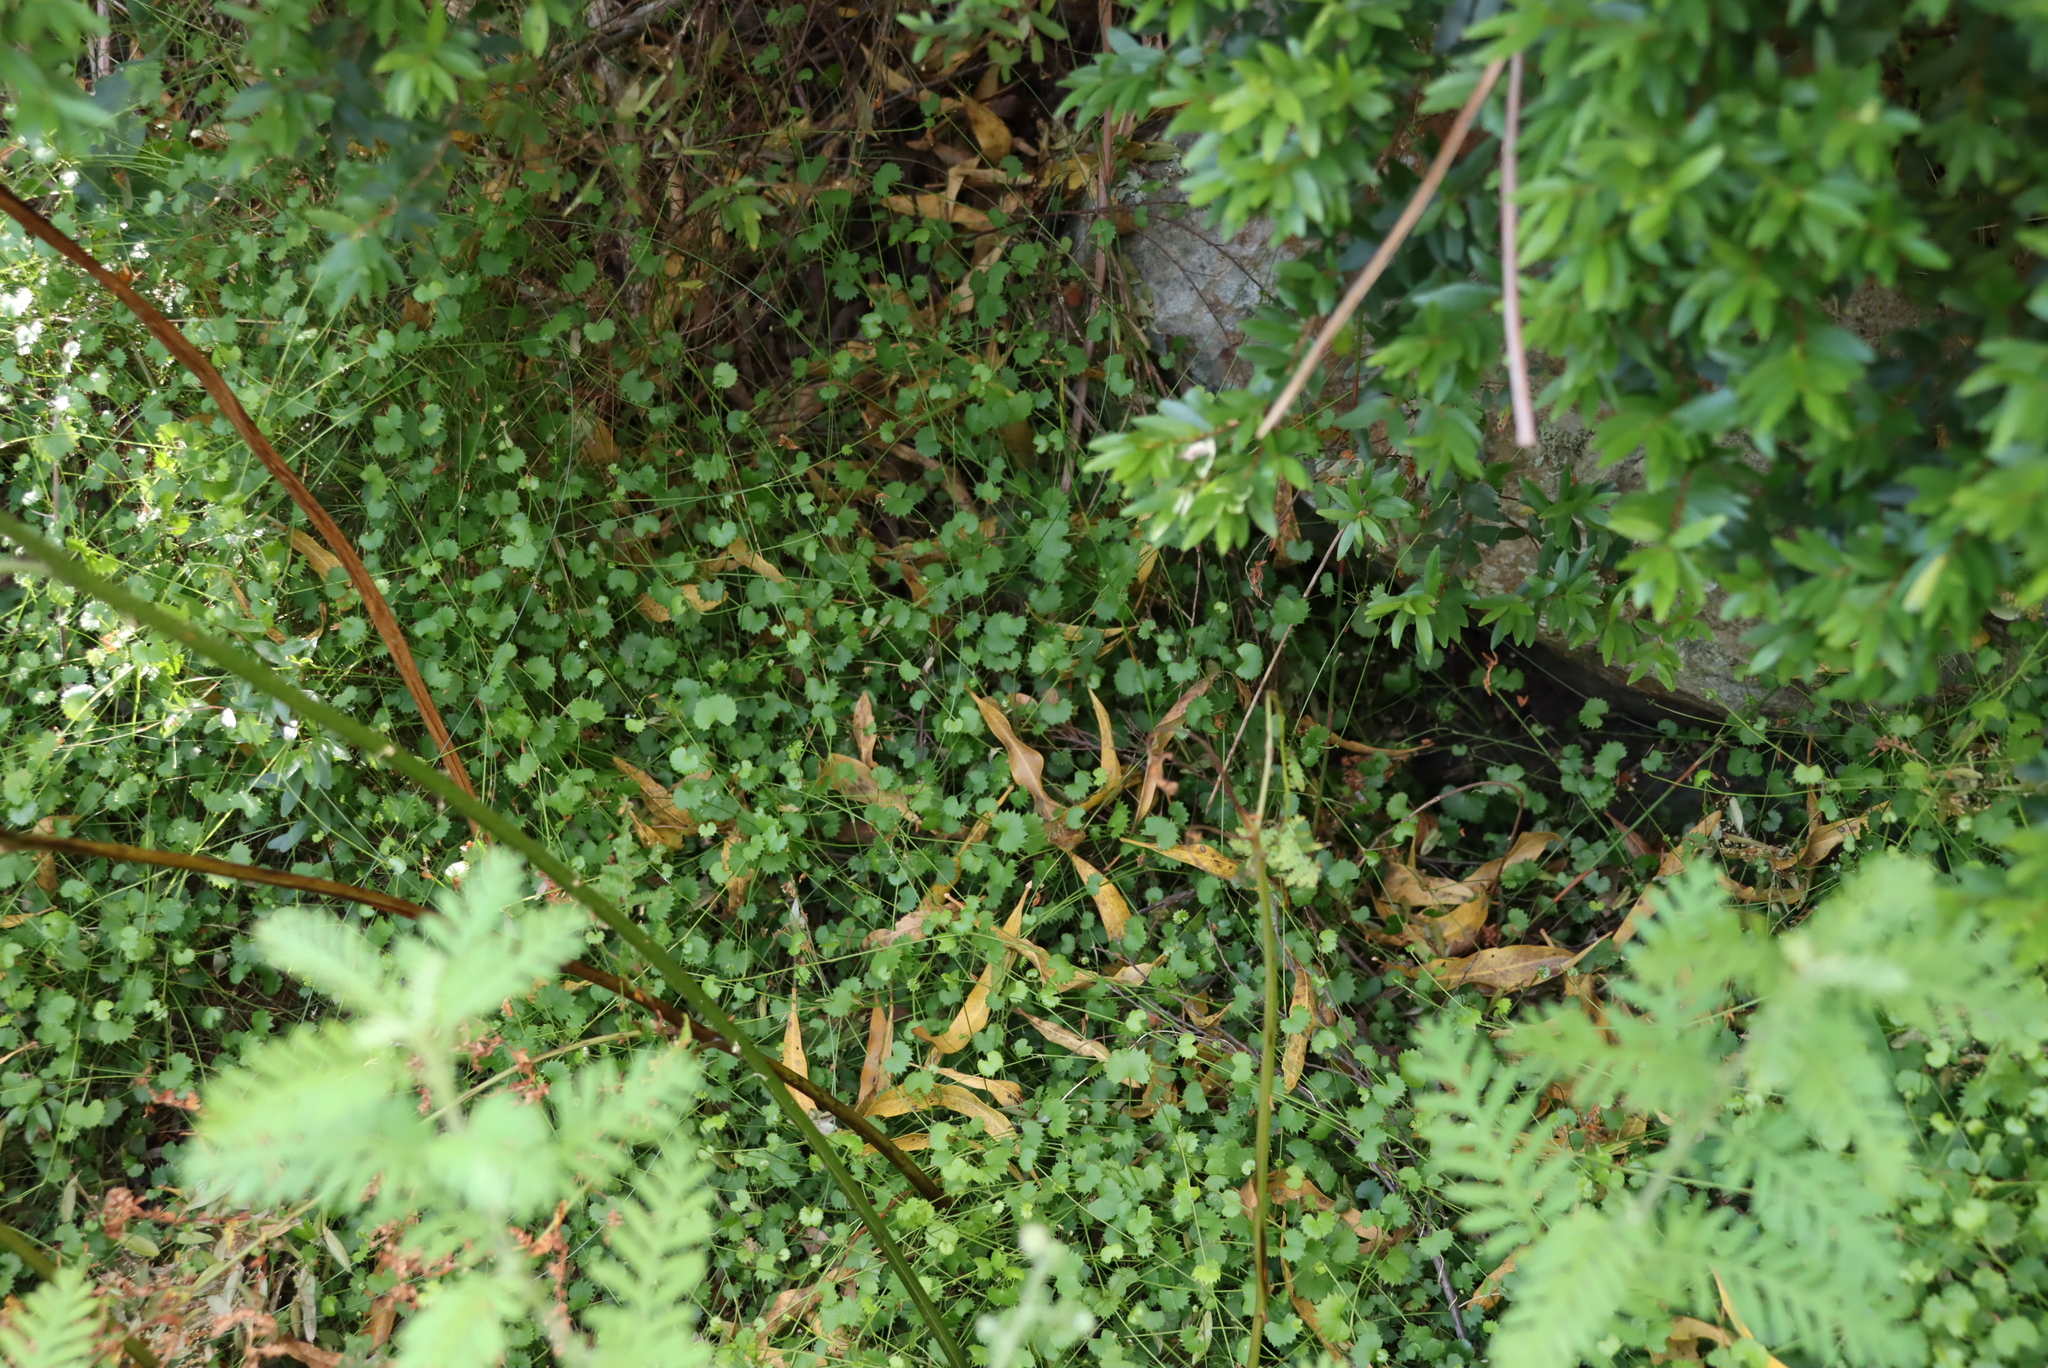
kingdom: Plantae
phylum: Tracheophyta
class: Magnoliopsida
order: Apiales
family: Apiaceae
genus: Centella
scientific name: Centella callioda
